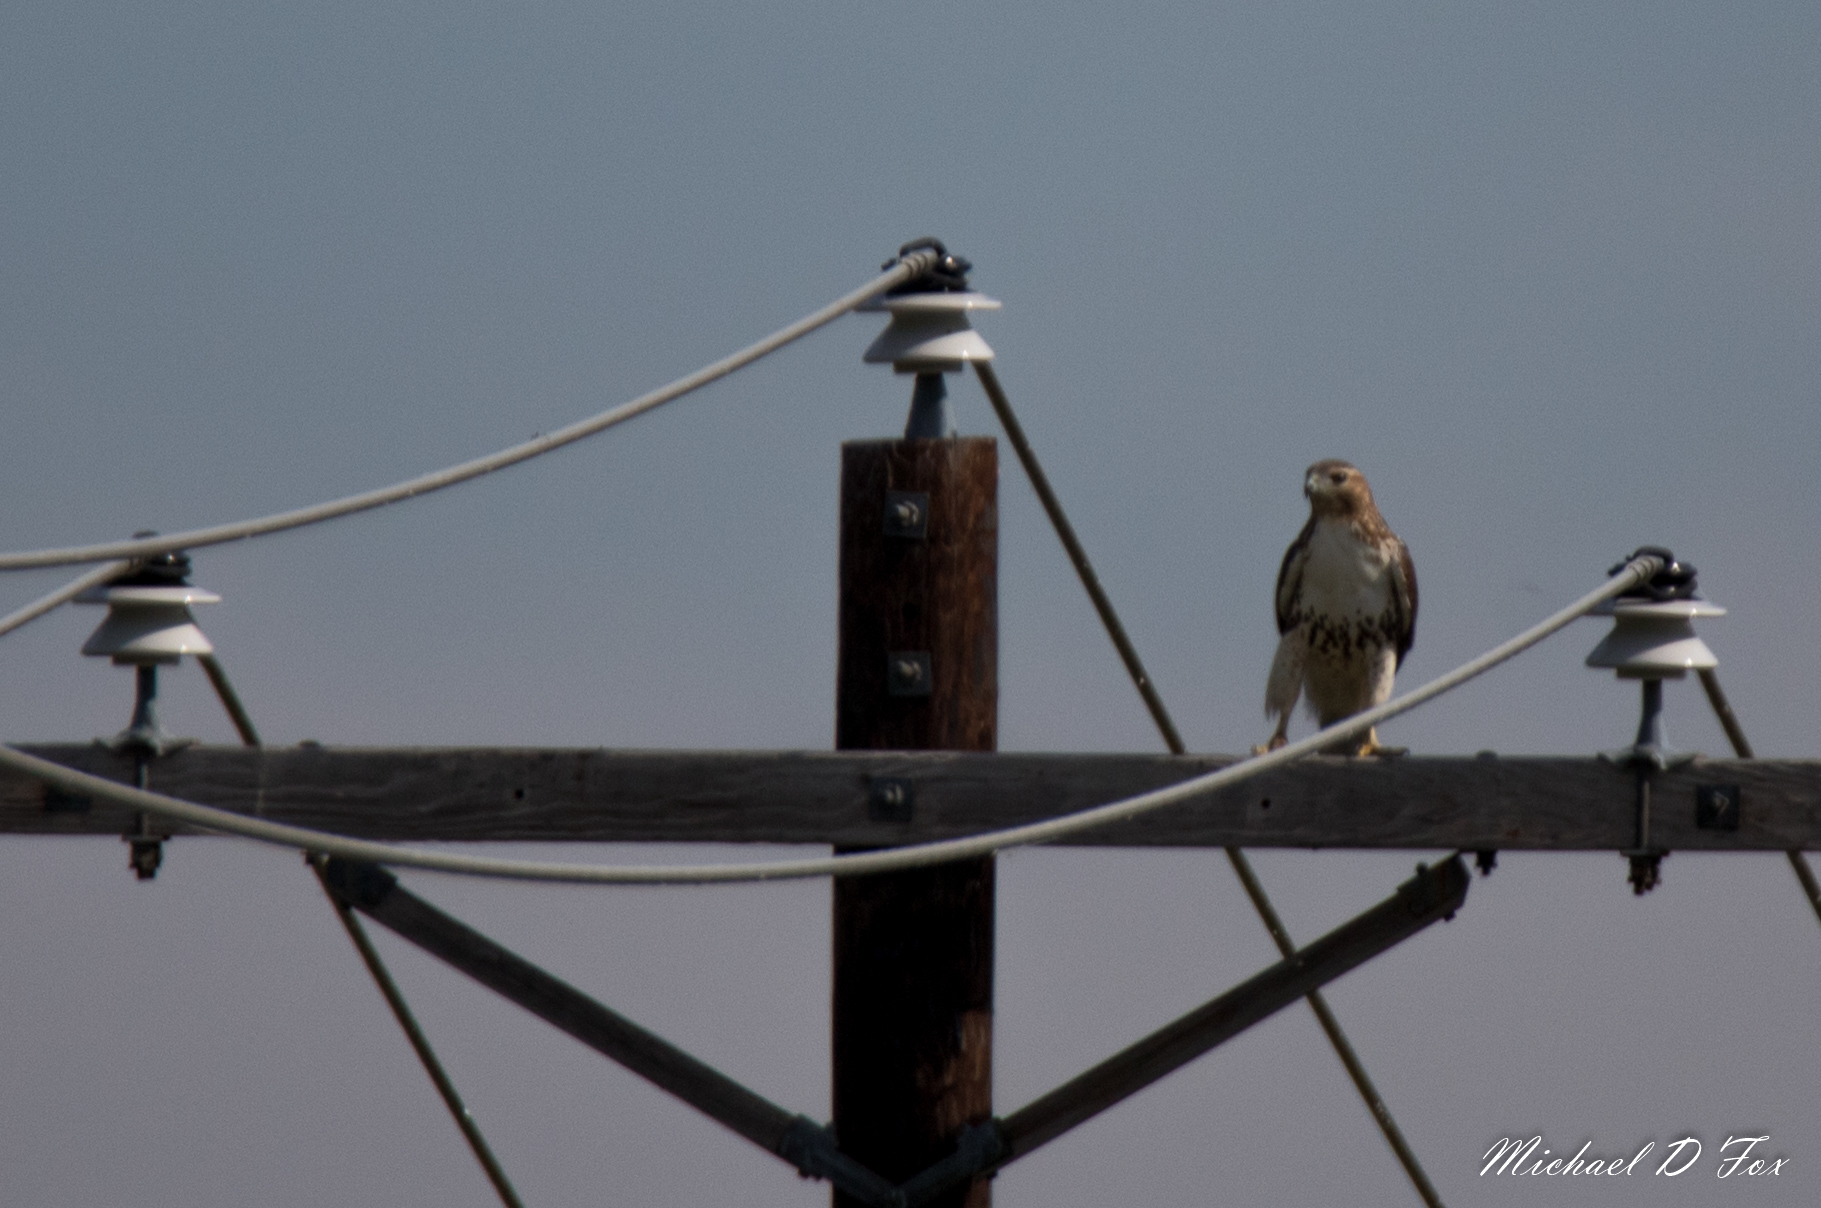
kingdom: Animalia
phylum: Chordata
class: Aves
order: Accipitriformes
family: Accipitridae
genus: Buteo
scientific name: Buteo jamaicensis
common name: Red-tailed hawk
